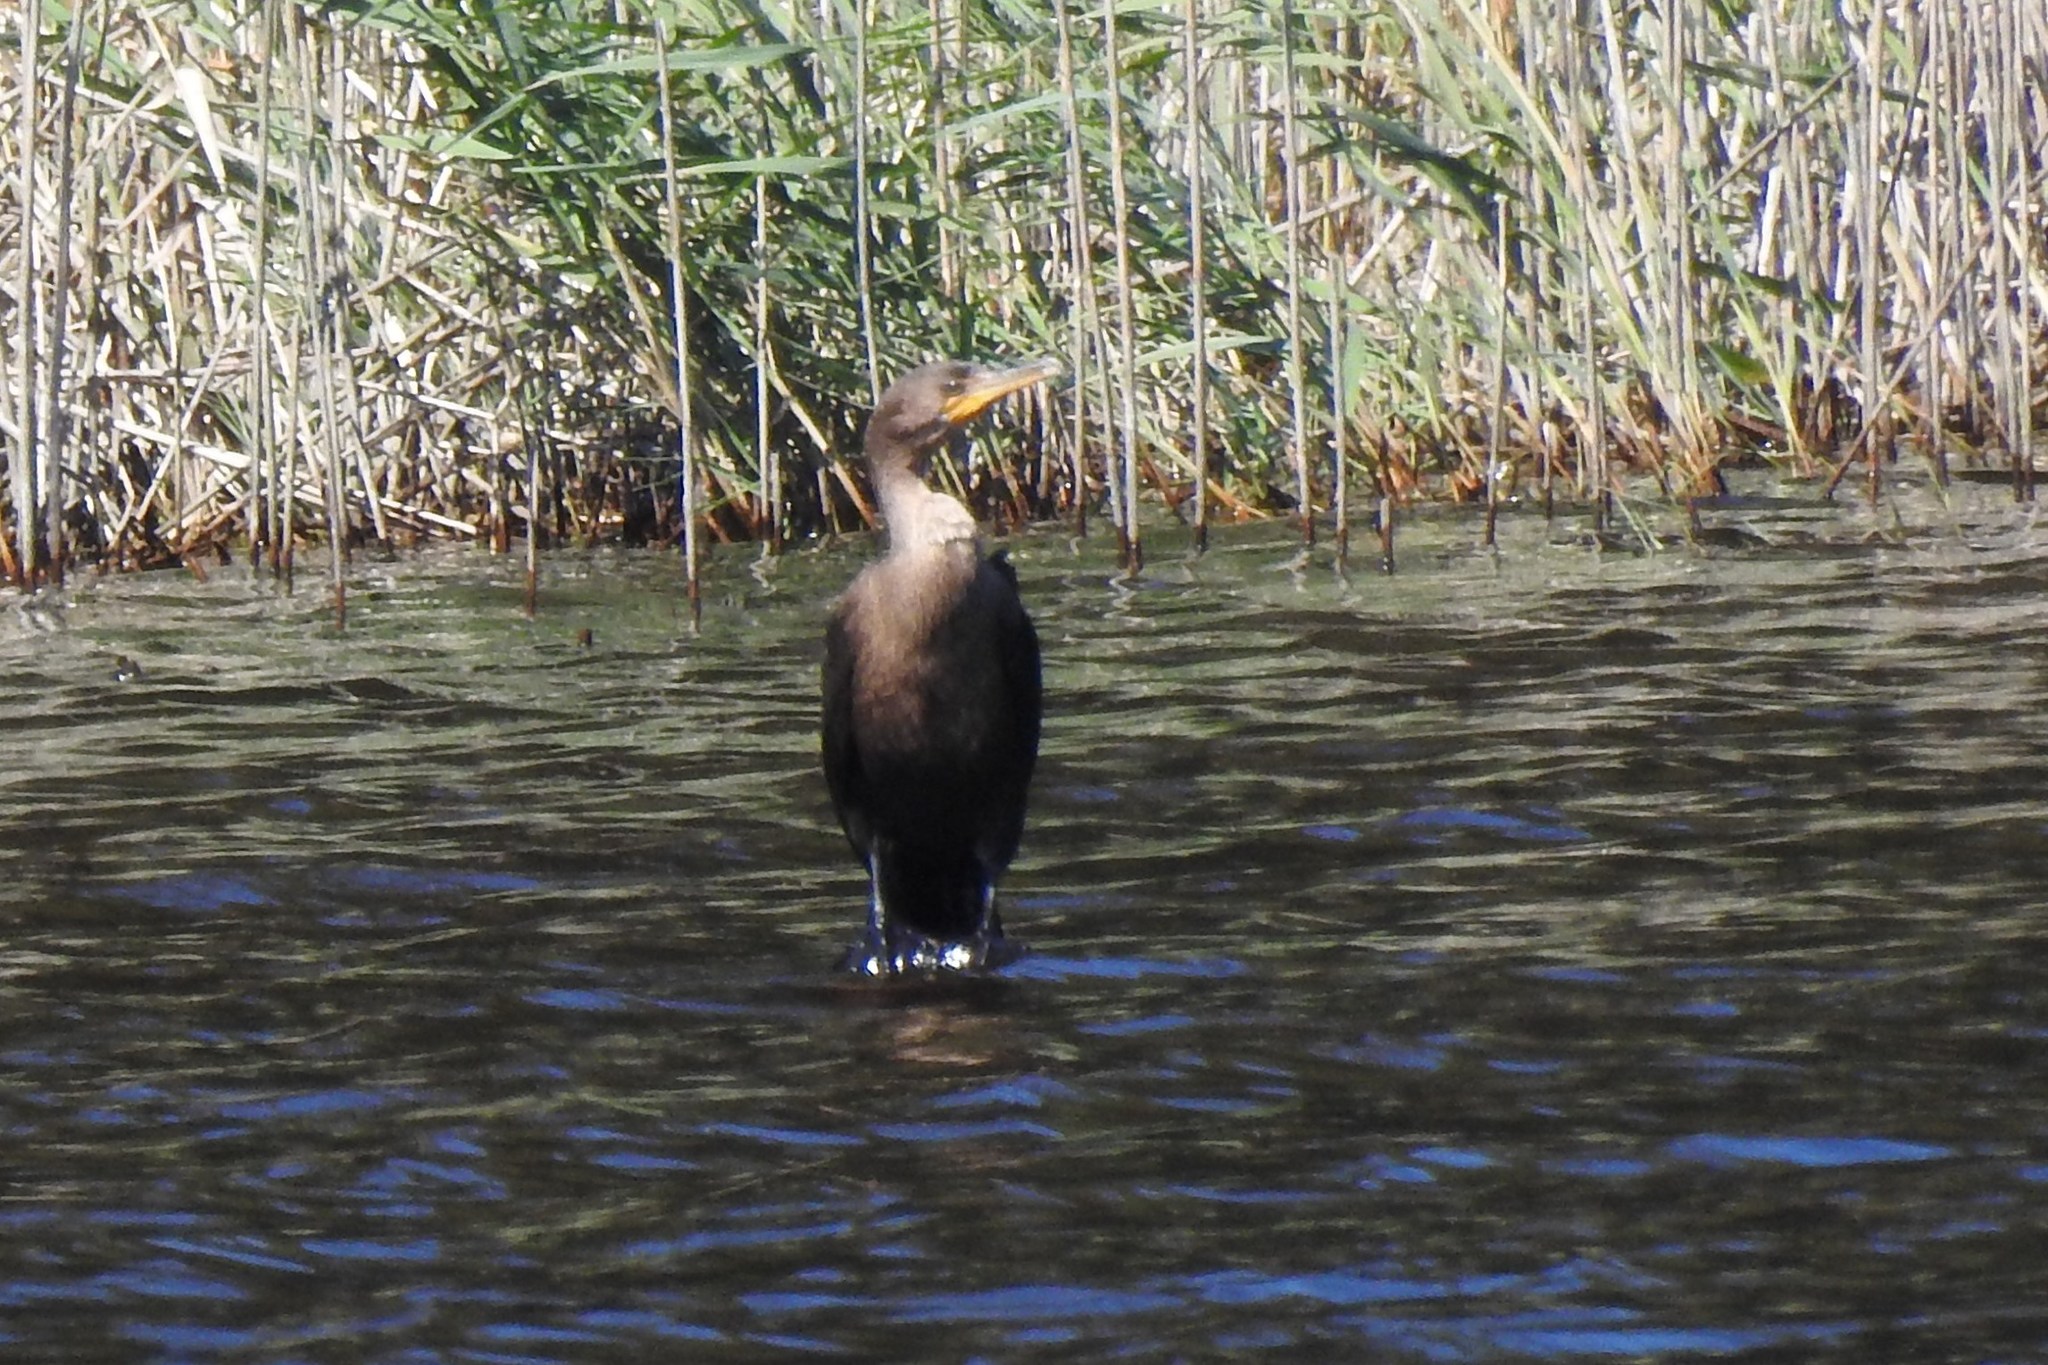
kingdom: Animalia
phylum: Chordata
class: Aves
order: Suliformes
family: Phalacrocoracidae
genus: Phalacrocorax
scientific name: Phalacrocorax auritus
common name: Double-crested cormorant
